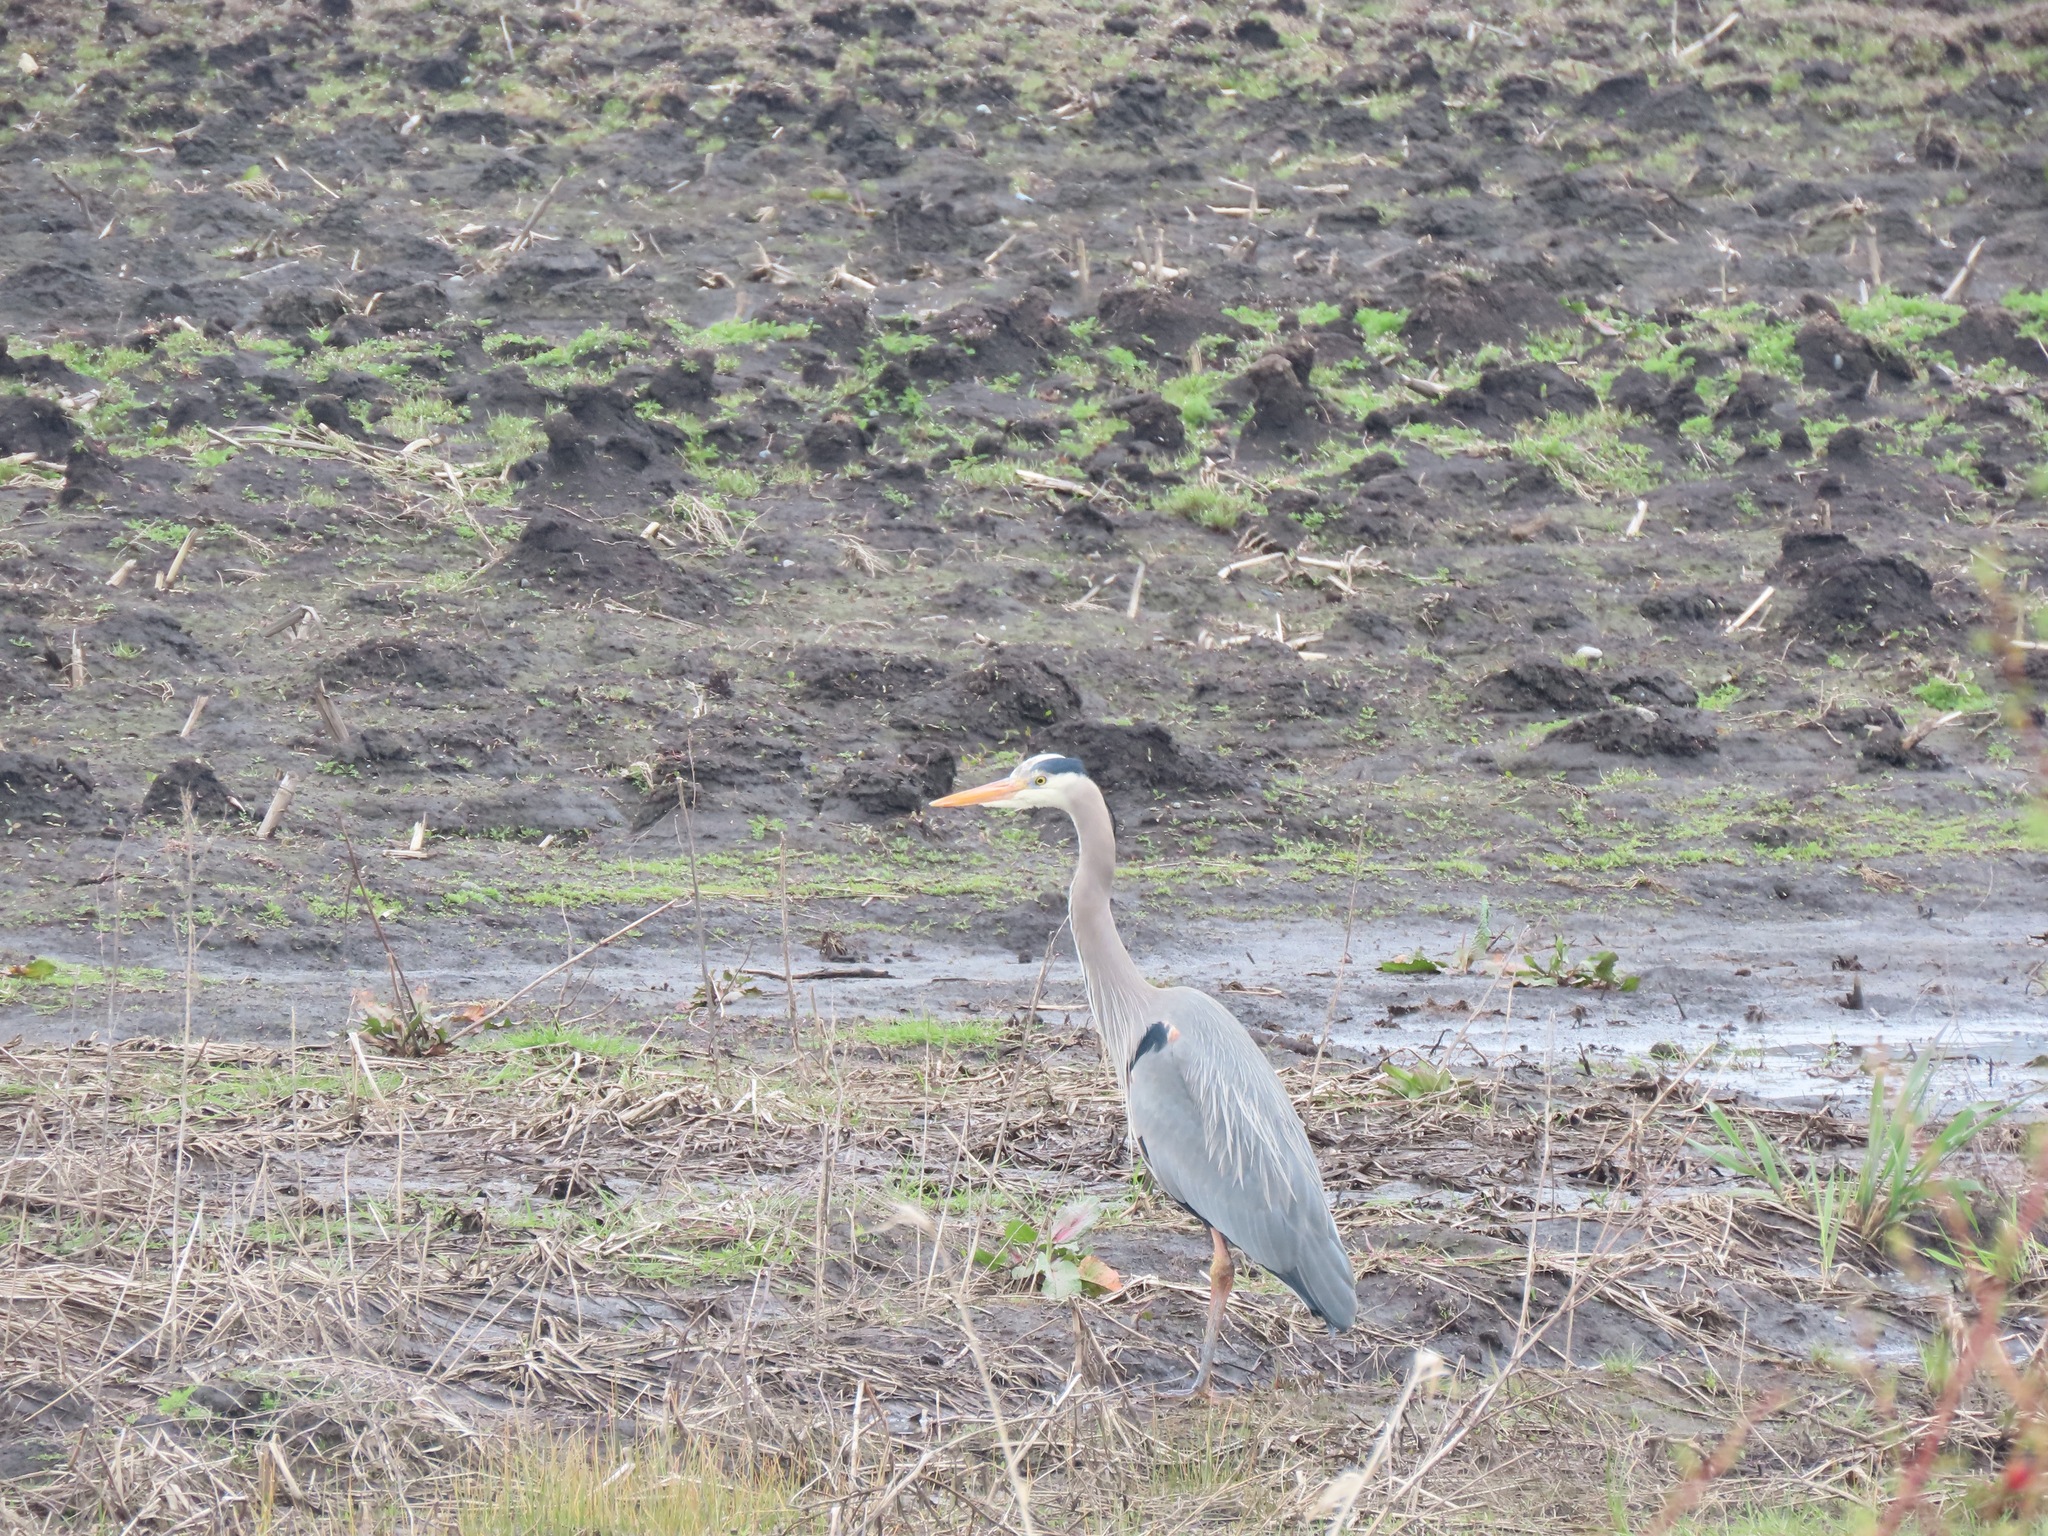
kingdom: Animalia
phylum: Chordata
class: Aves
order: Pelecaniformes
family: Ardeidae
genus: Ardea
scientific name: Ardea herodias
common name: Great blue heron
